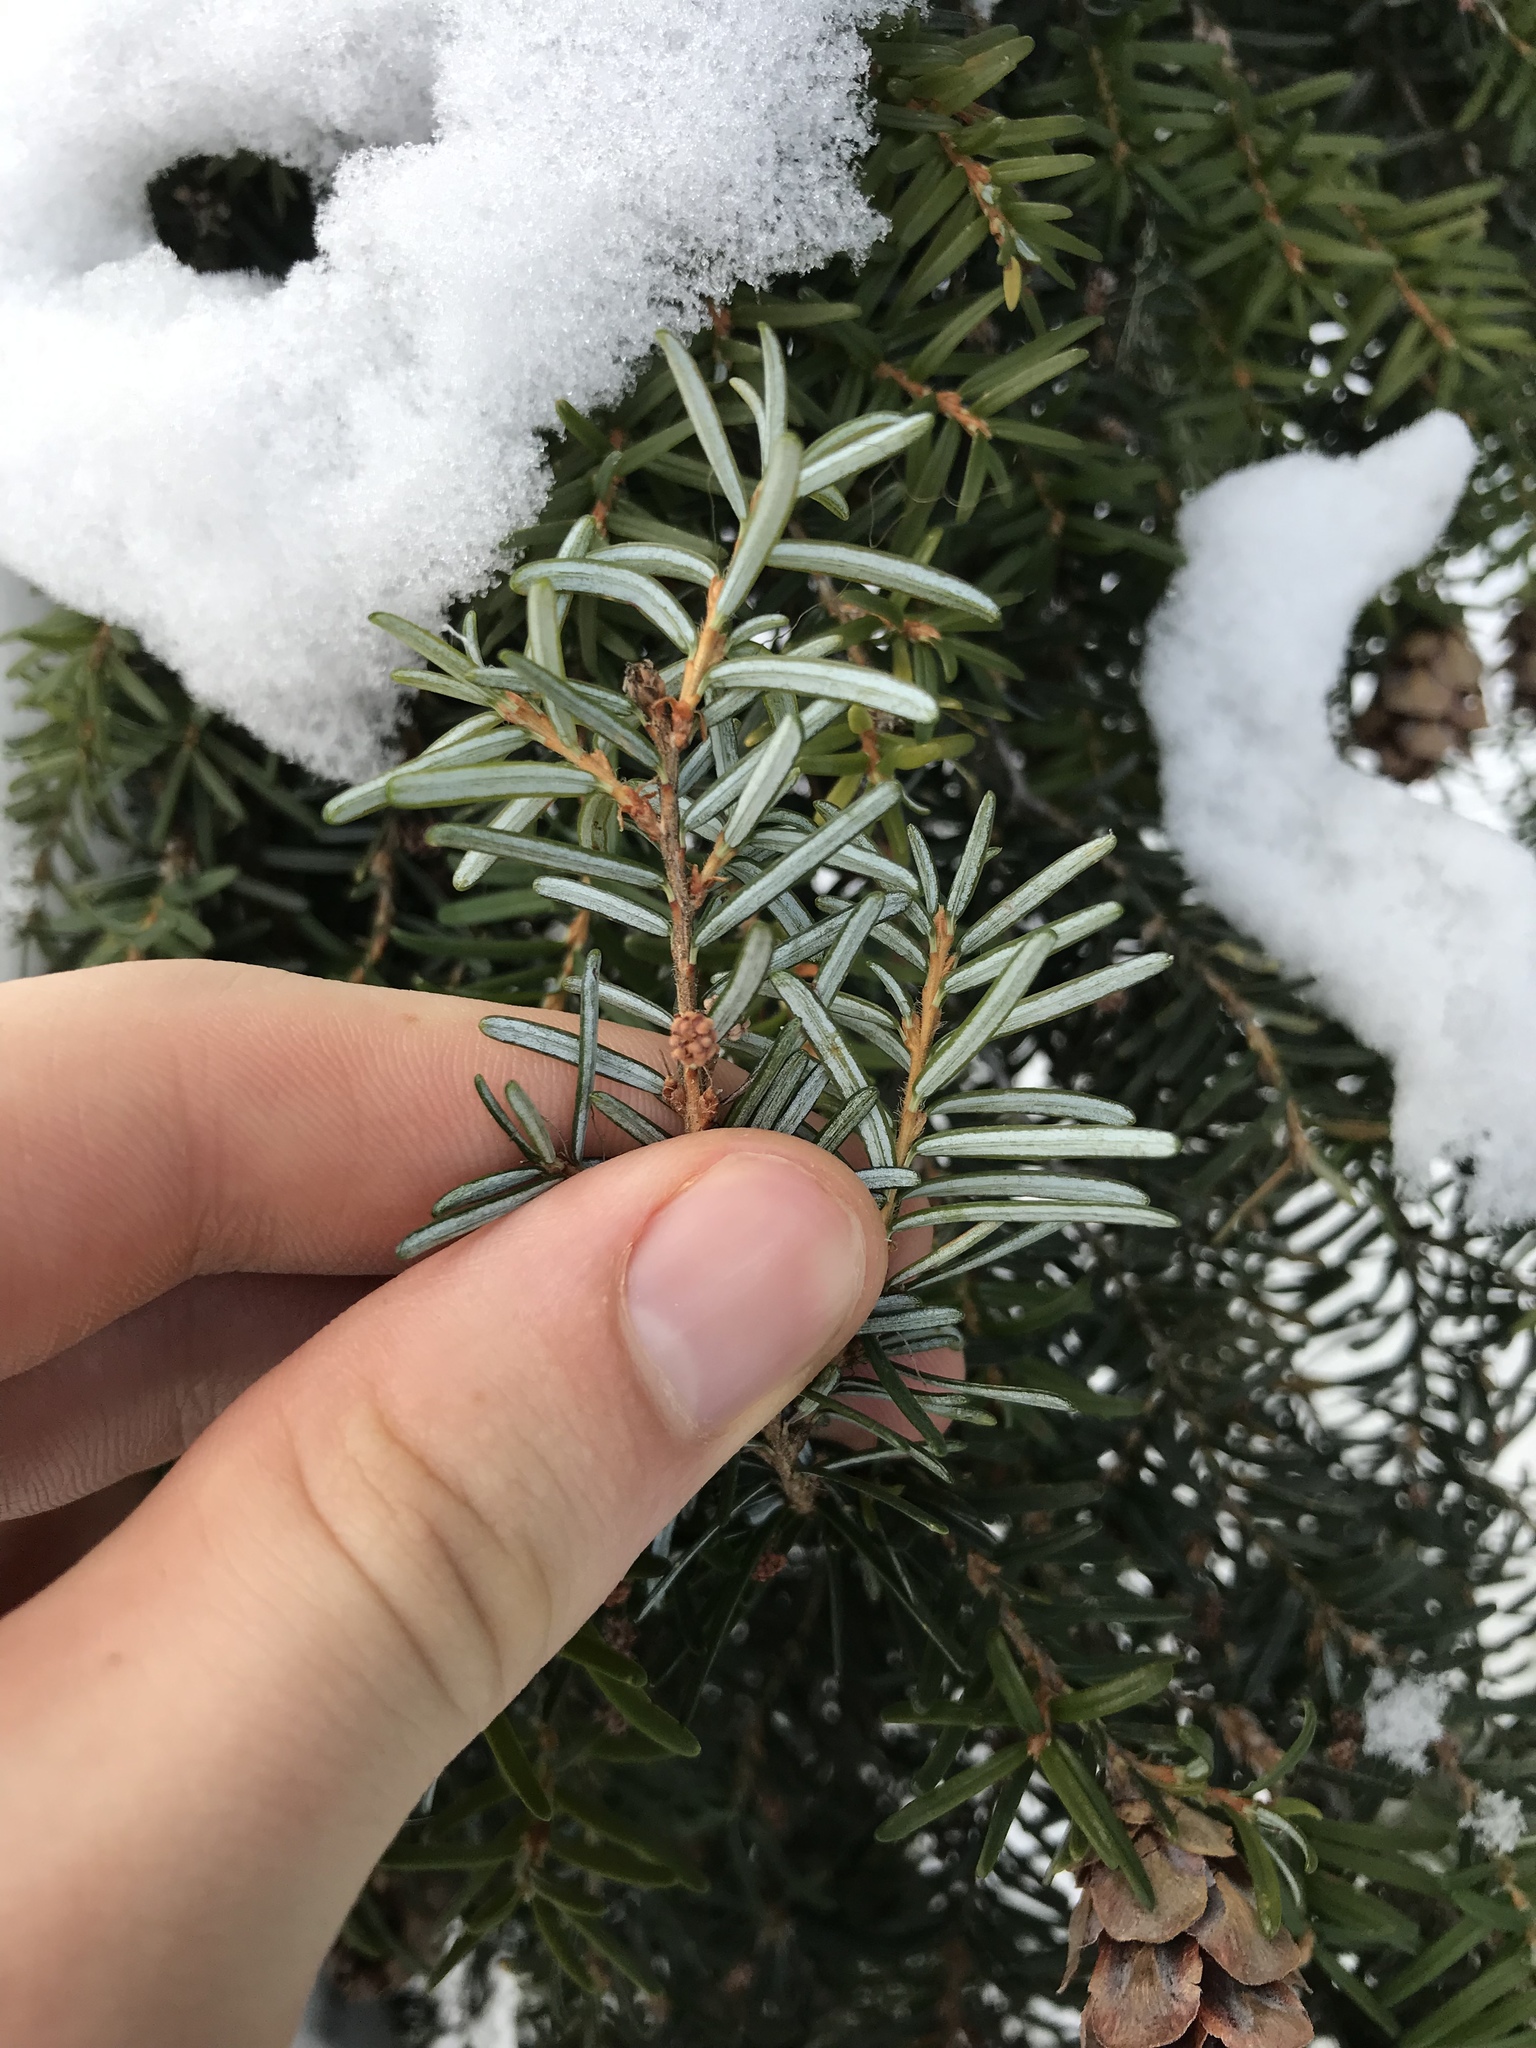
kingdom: Plantae
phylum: Tracheophyta
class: Pinopsida
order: Pinales
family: Pinaceae
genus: Tsuga
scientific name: Tsuga heterophylla
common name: Western hemlock
